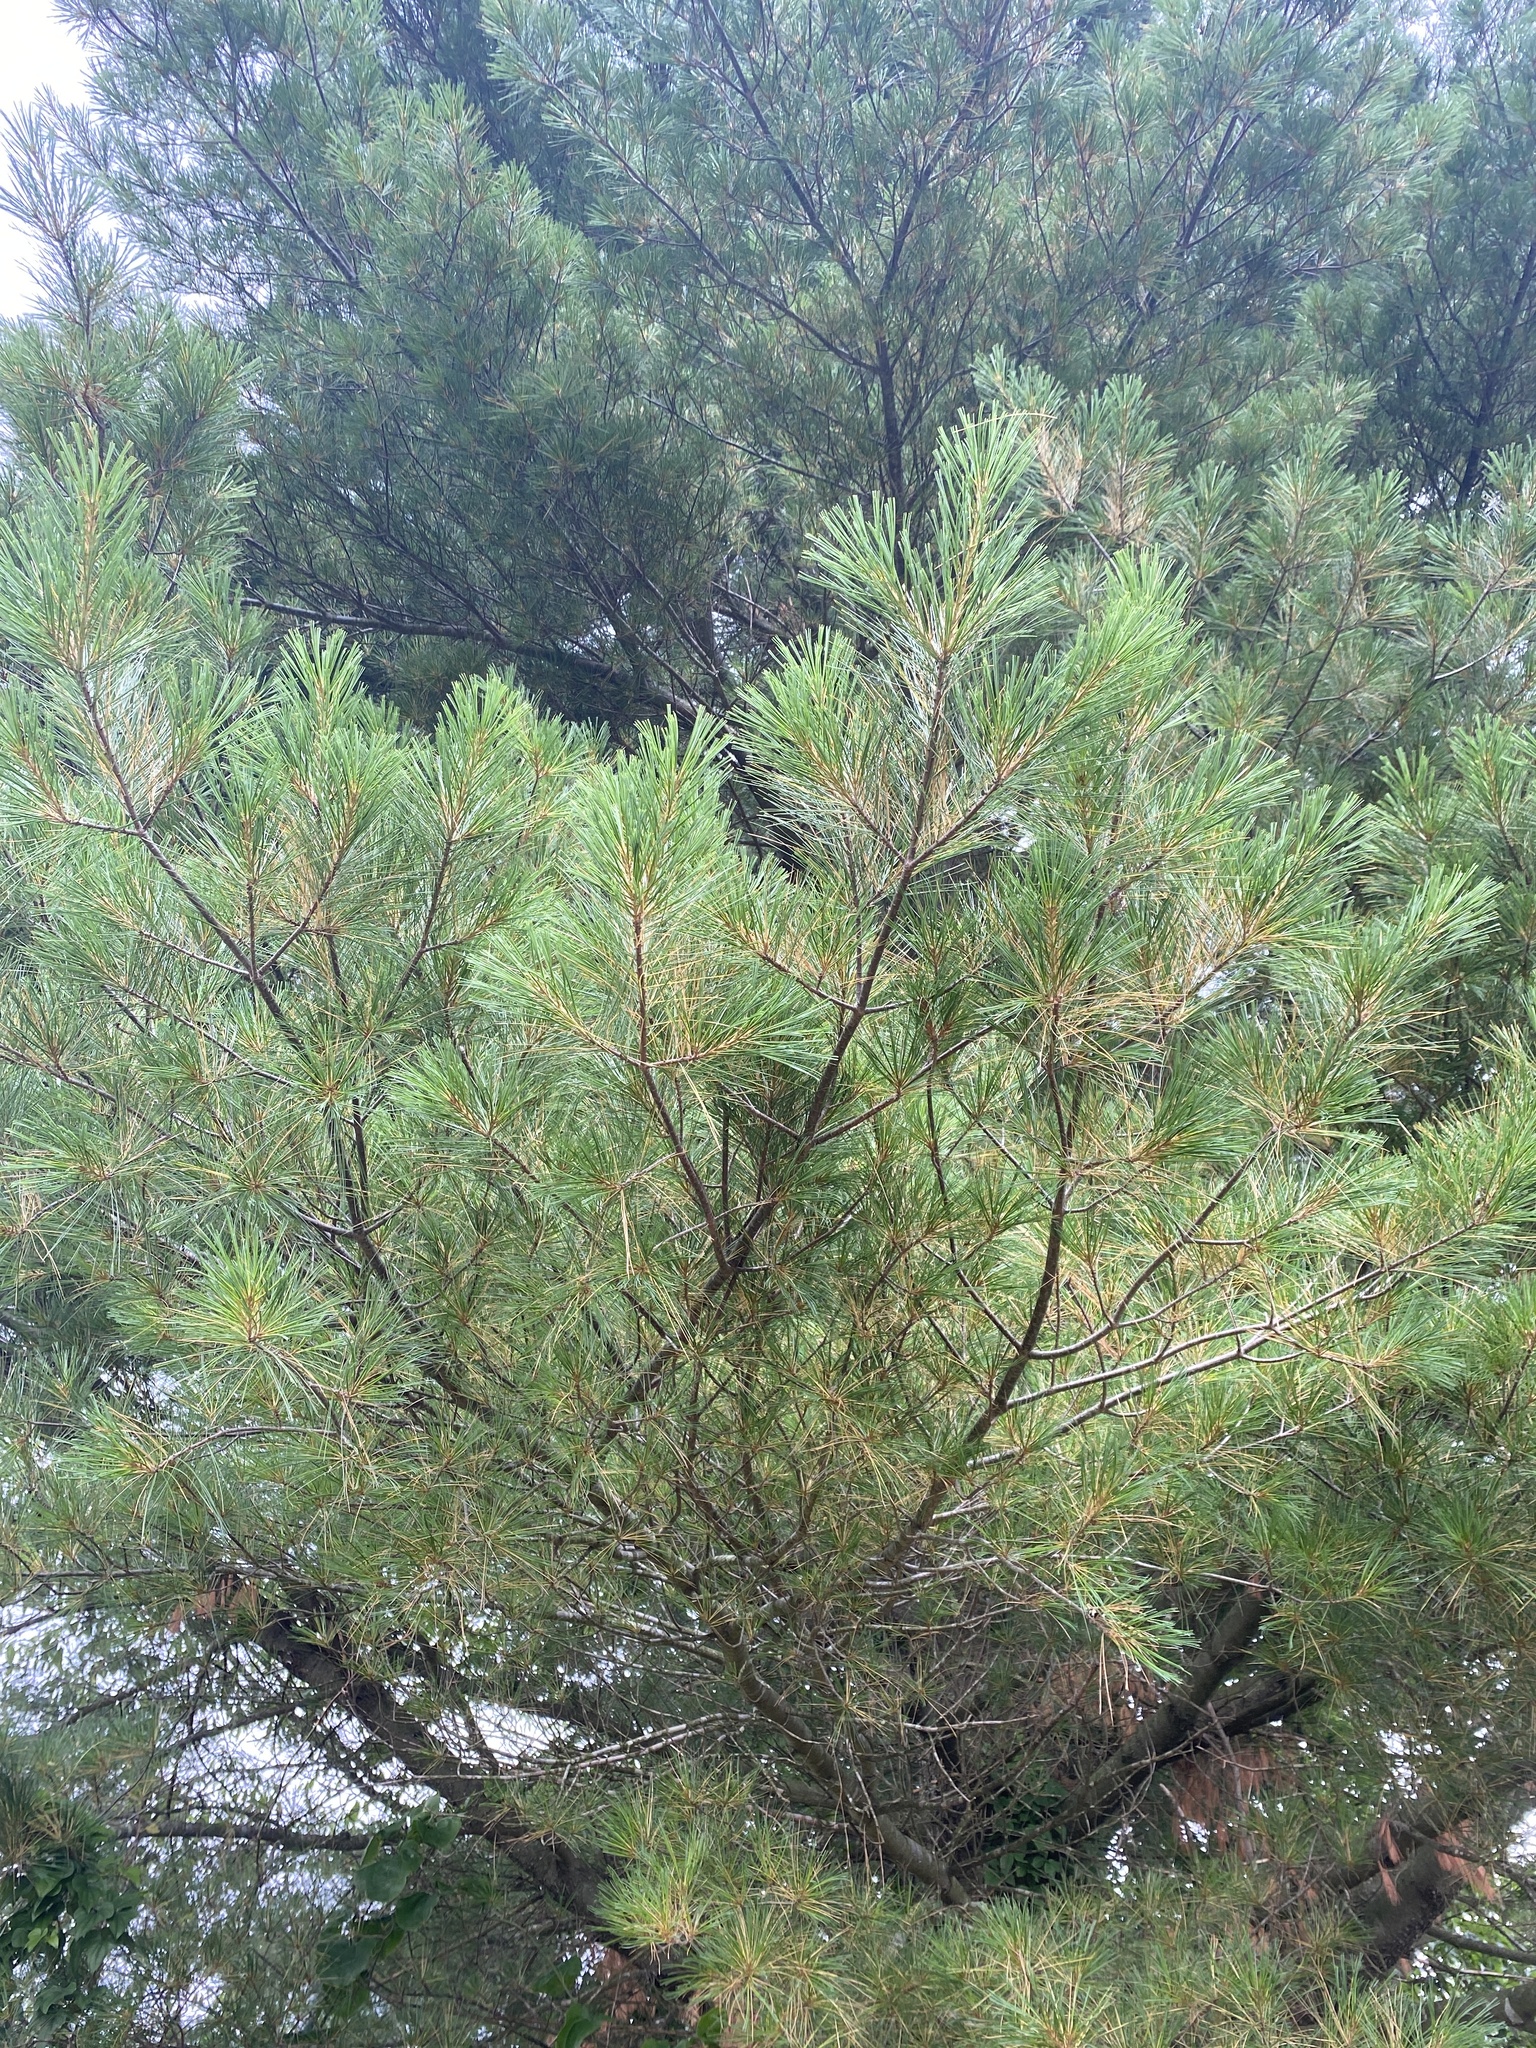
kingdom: Plantae
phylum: Tracheophyta
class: Pinopsida
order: Pinales
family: Pinaceae
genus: Pinus
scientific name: Pinus strobus
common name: Weymouth pine
